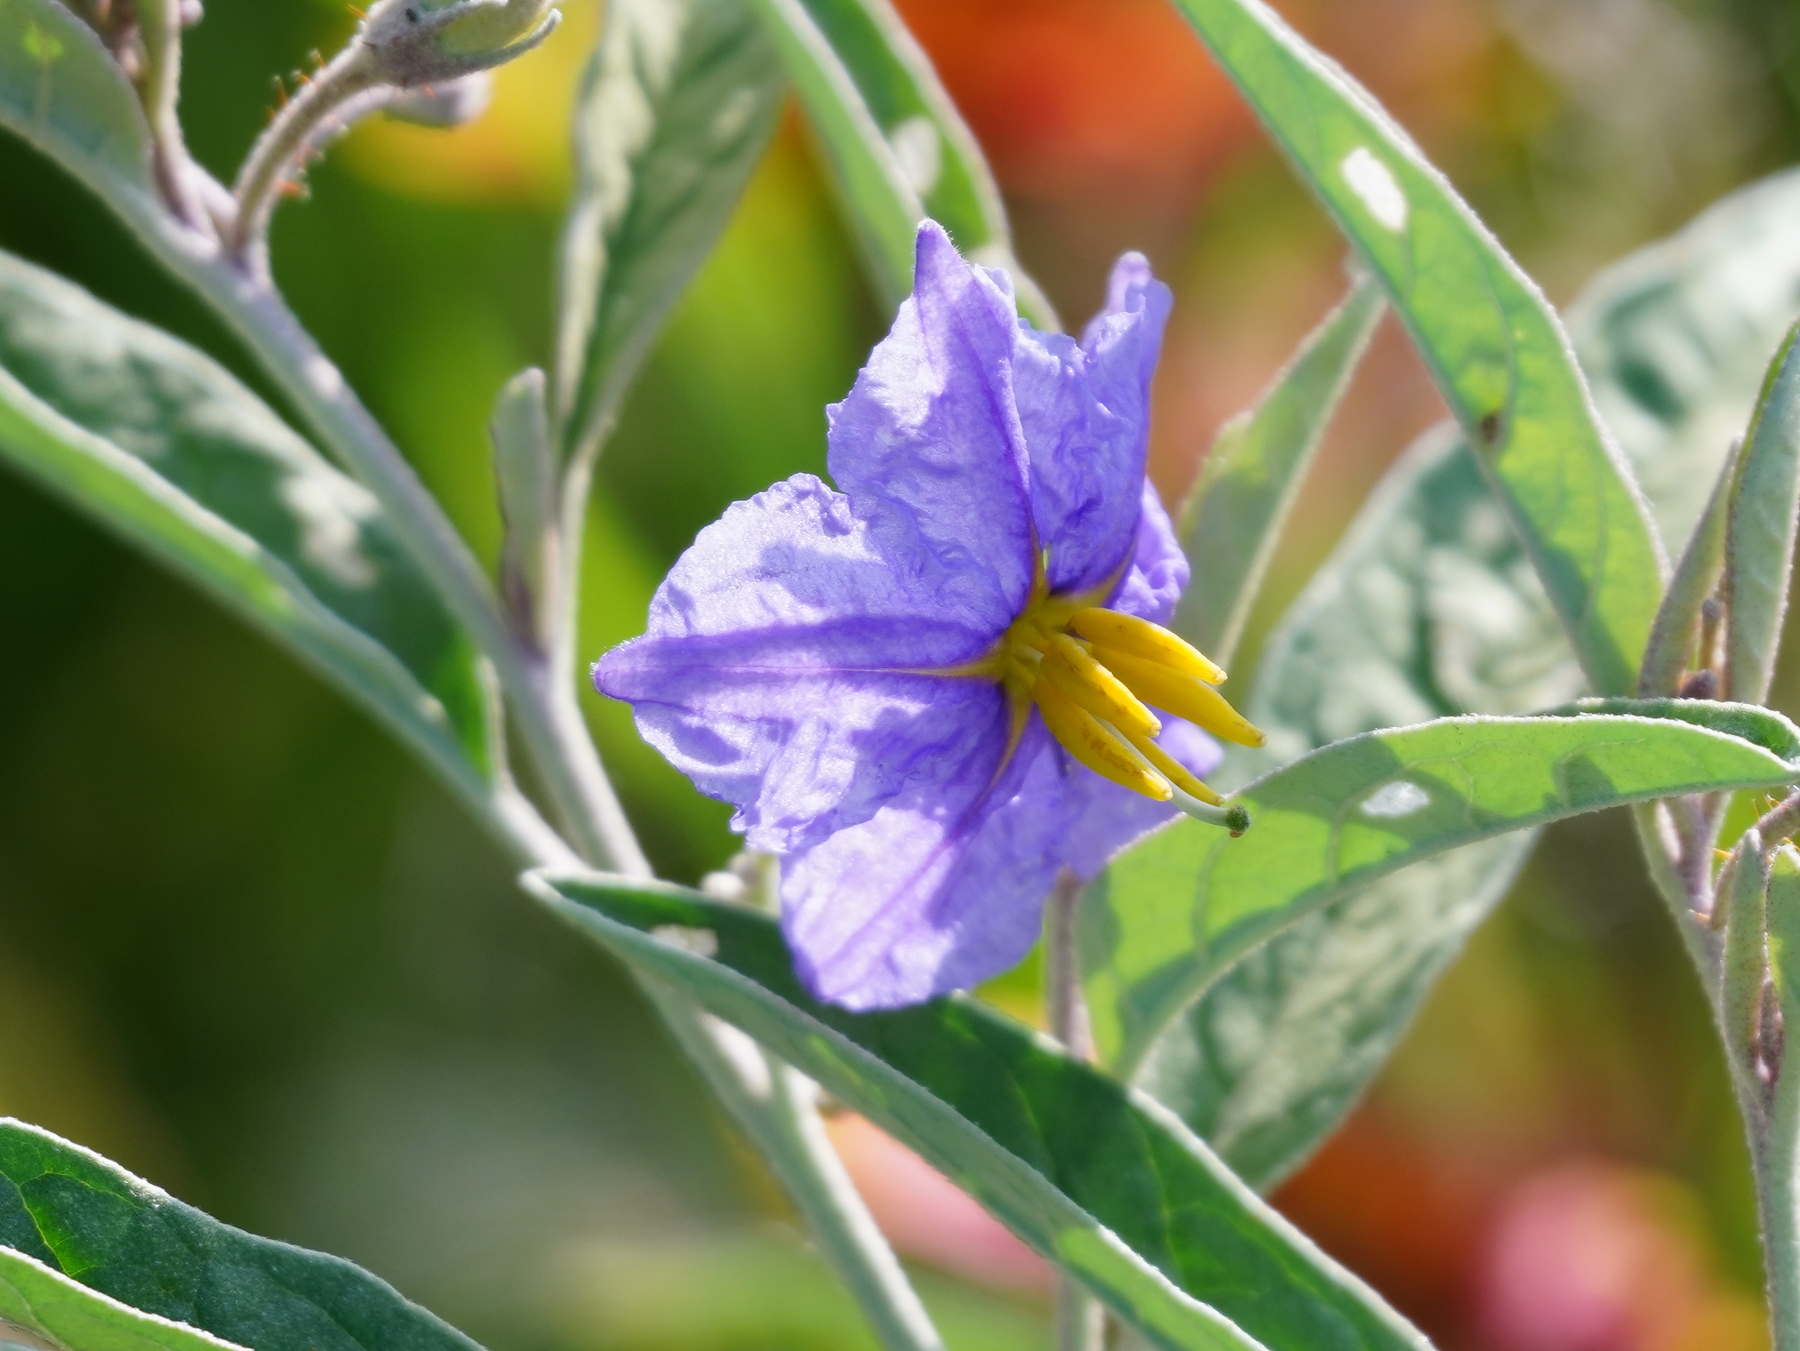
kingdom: Plantae
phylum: Tracheophyta
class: Magnoliopsida
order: Solanales
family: Solanaceae
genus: Solanum
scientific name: Solanum elaeagnifolium
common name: Silverleaf nightshade
